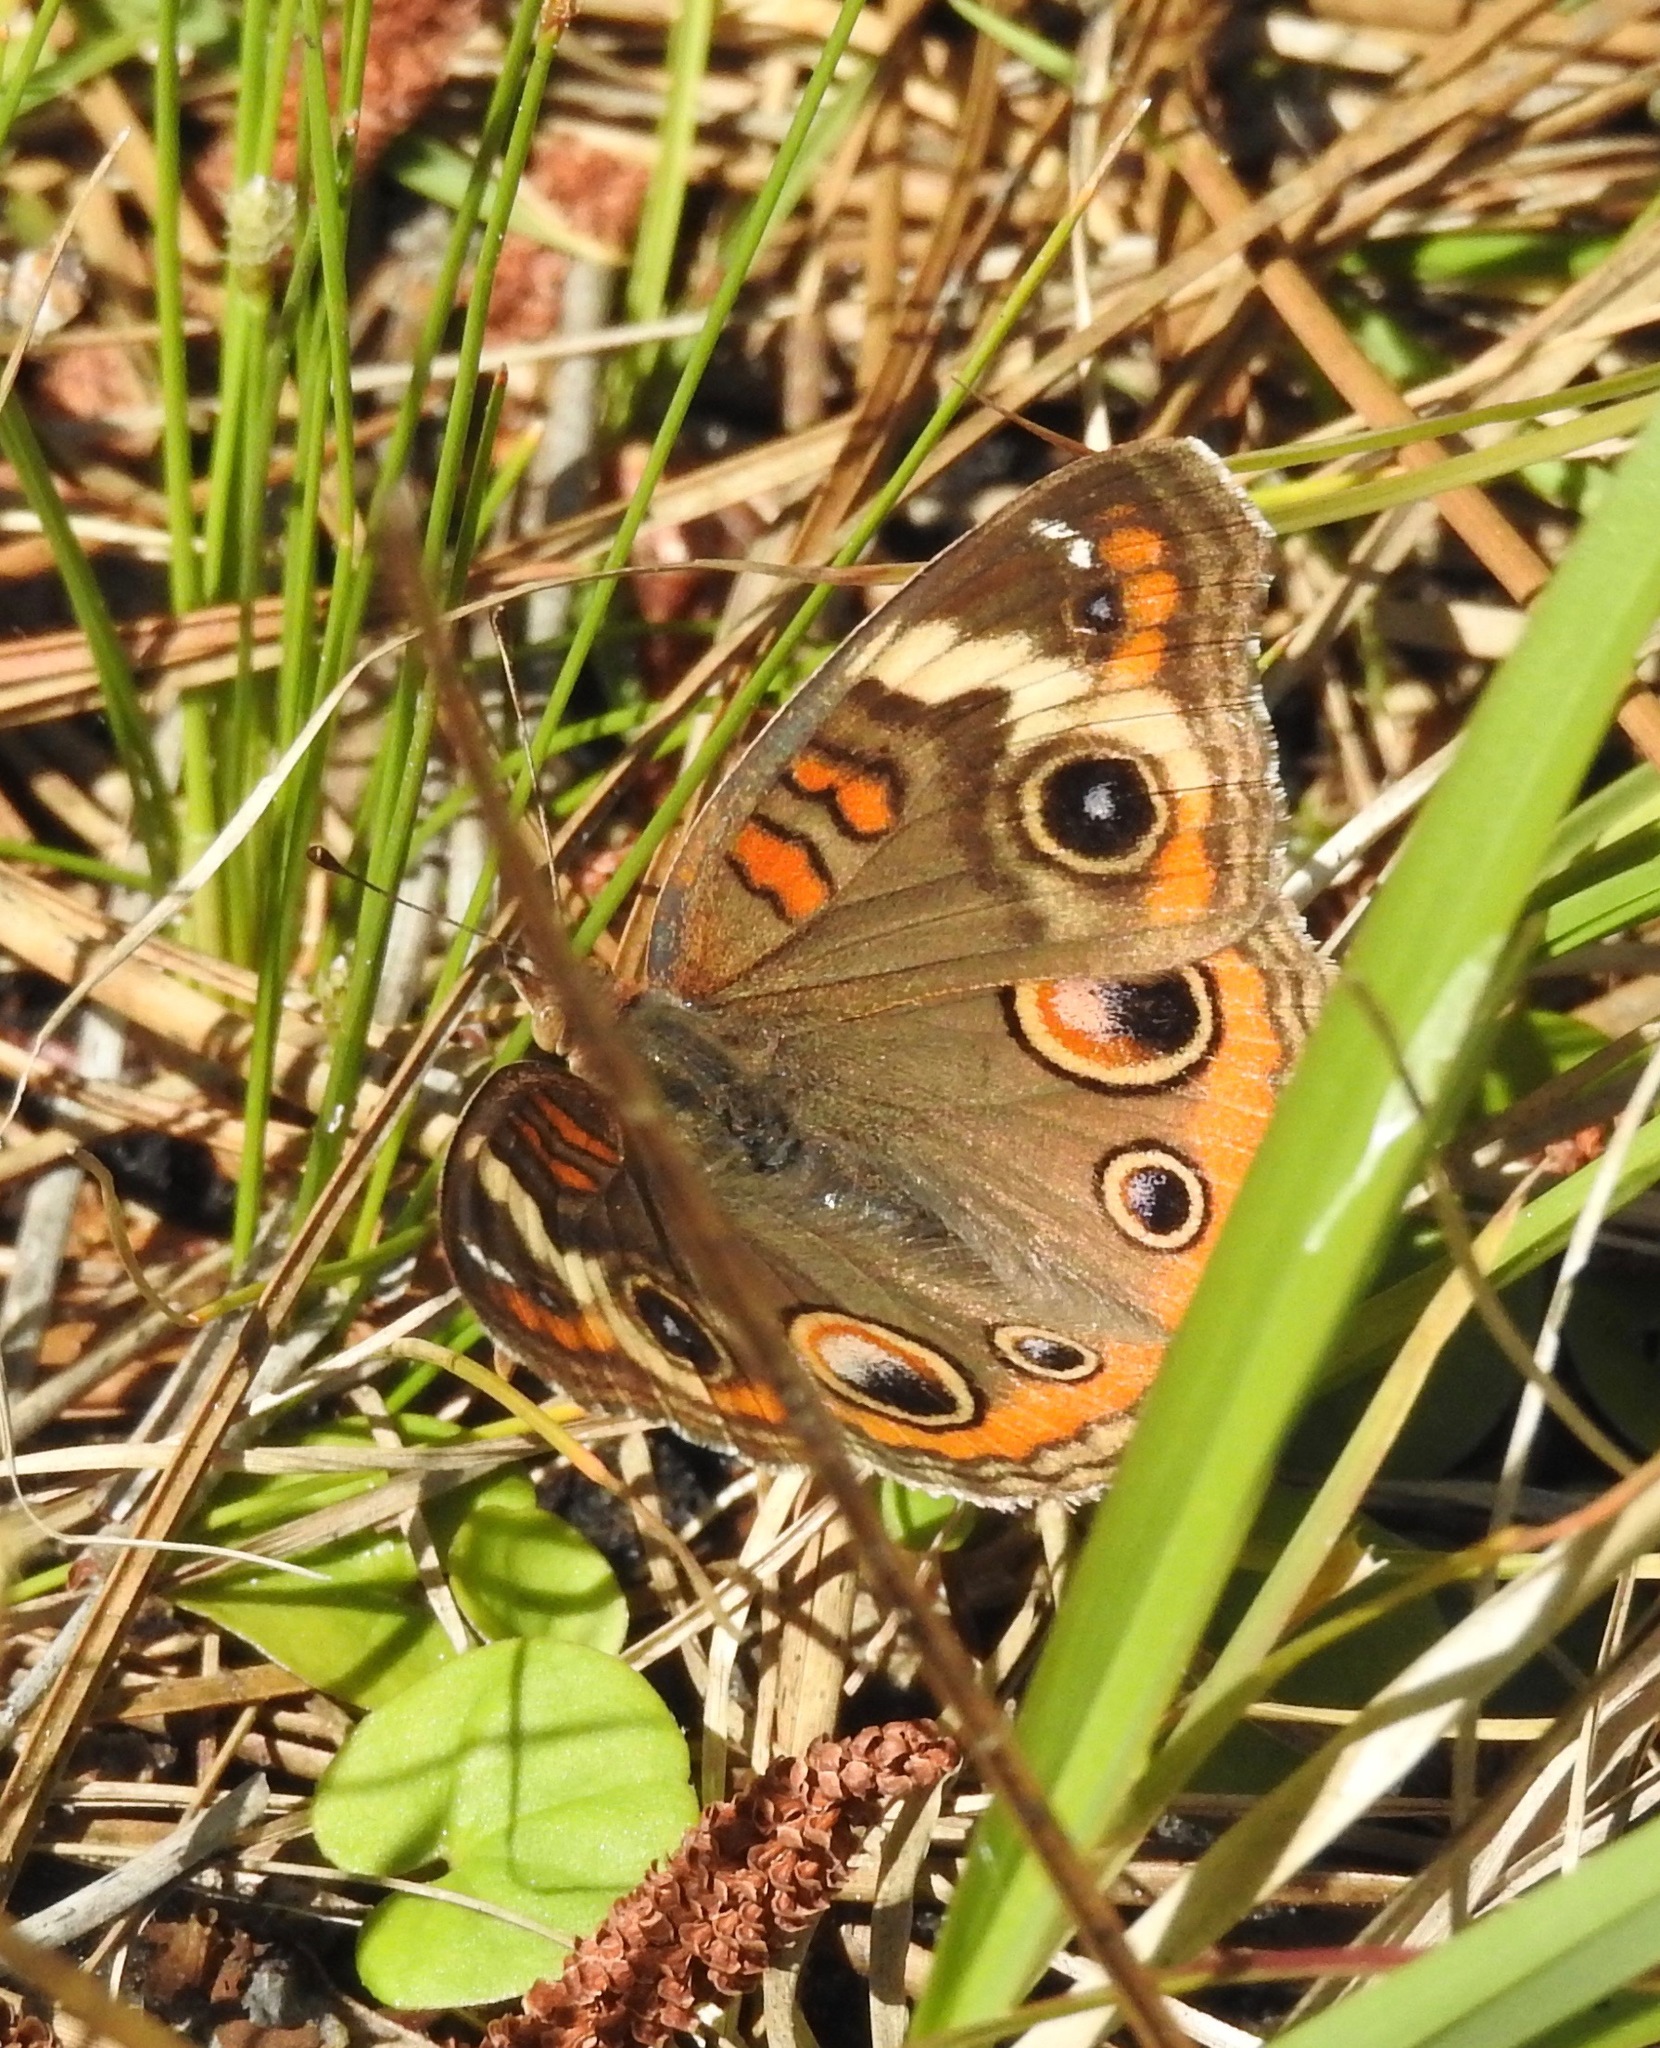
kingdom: Animalia
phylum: Arthropoda
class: Insecta
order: Lepidoptera
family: Nymphalidae
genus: Junonia
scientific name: Junonia coenia
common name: Common buckeye
